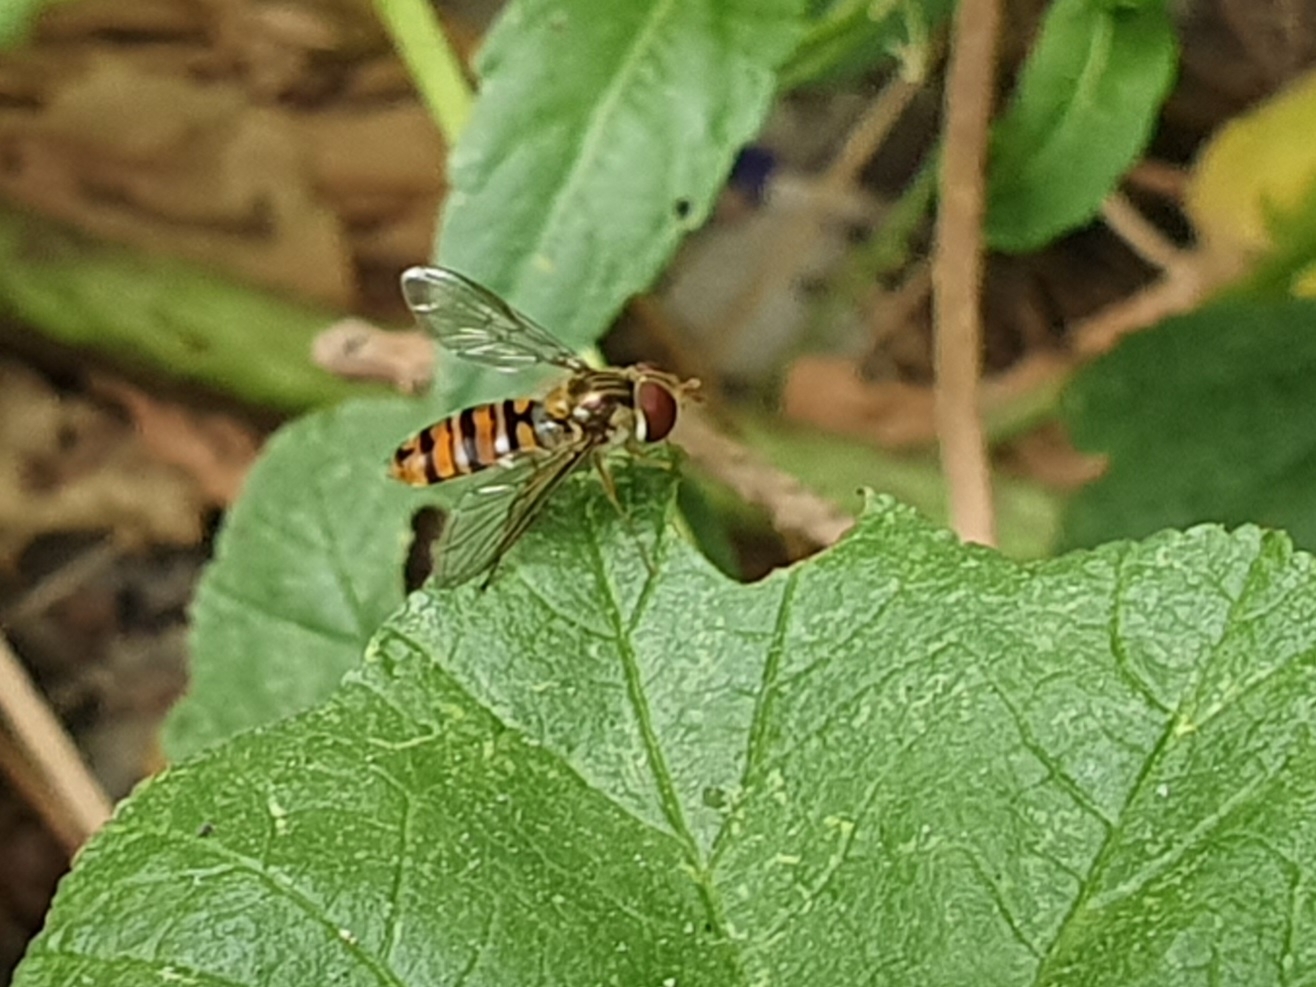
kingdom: Animalia
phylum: Arthropoda
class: Insecta
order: Diptera
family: Syrphidae
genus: Episyrphus
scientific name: Episyrphus balteatus
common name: Marmalade hoverfly
